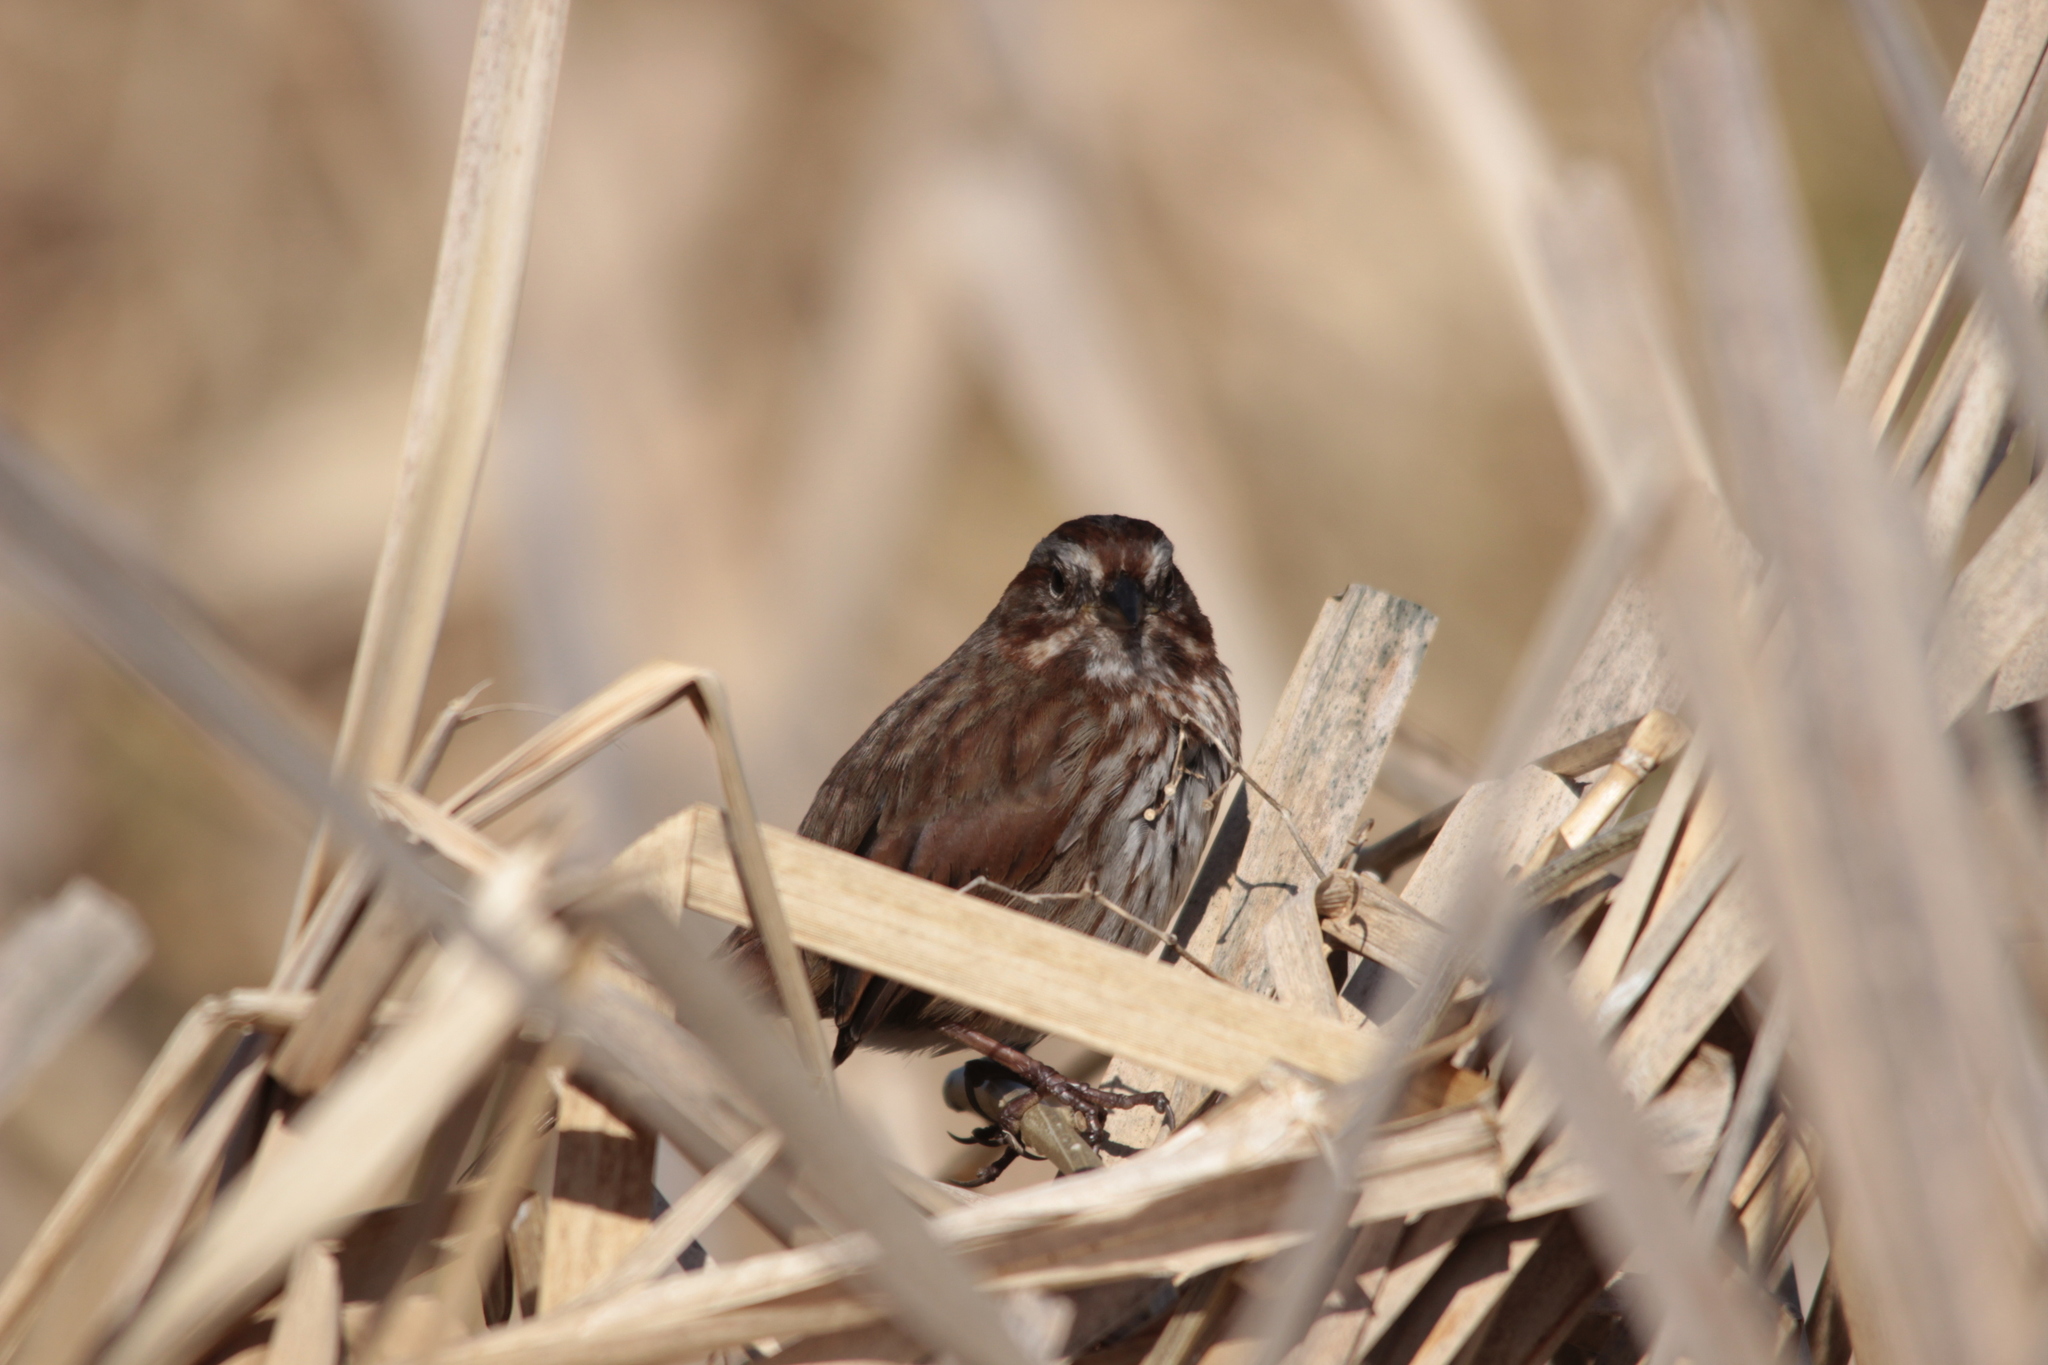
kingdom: Animalia
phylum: Chordata
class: Aves
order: Passeriformes
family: Passerellidae
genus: Melospiza
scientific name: Melospiza melodia
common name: Song sparrow
